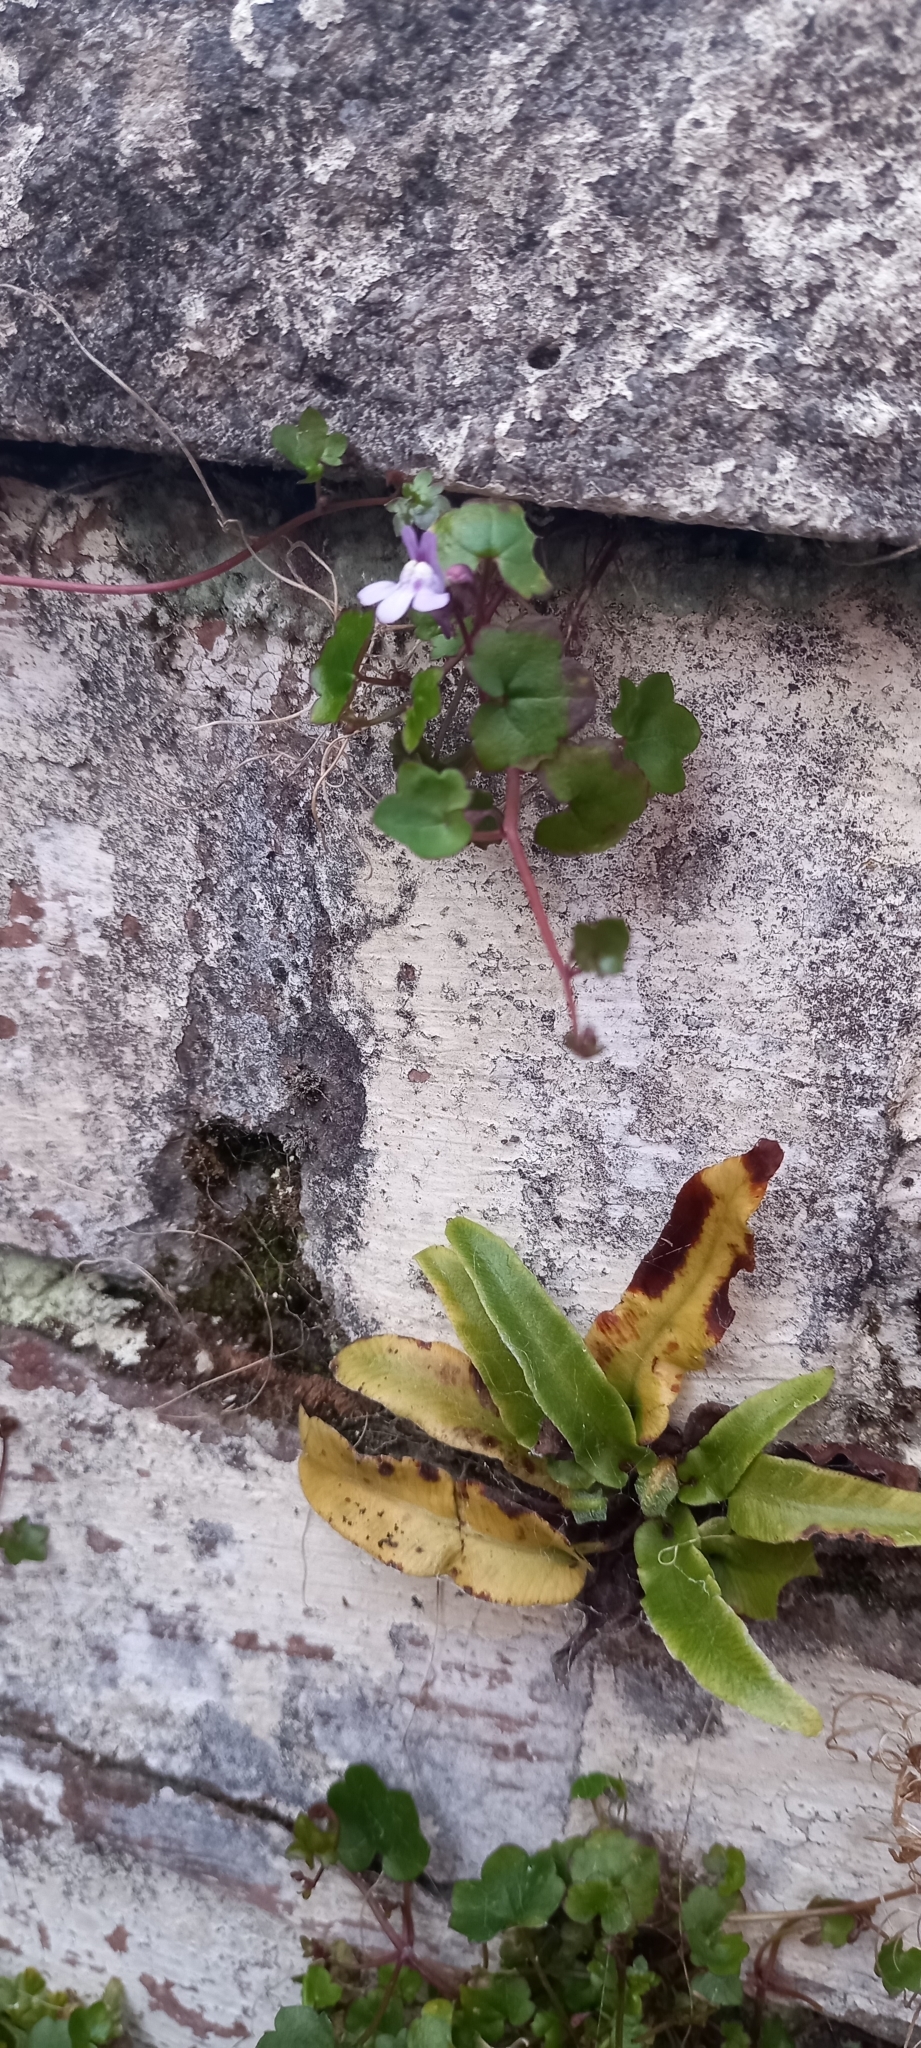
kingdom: Plantae
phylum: Tracheophyta
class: Magnoliopsida
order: Lamiales
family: Plantaginaceae
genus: Cymbalaria
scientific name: Cymbalaria muralis
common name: Ivy-leaved toadflax
